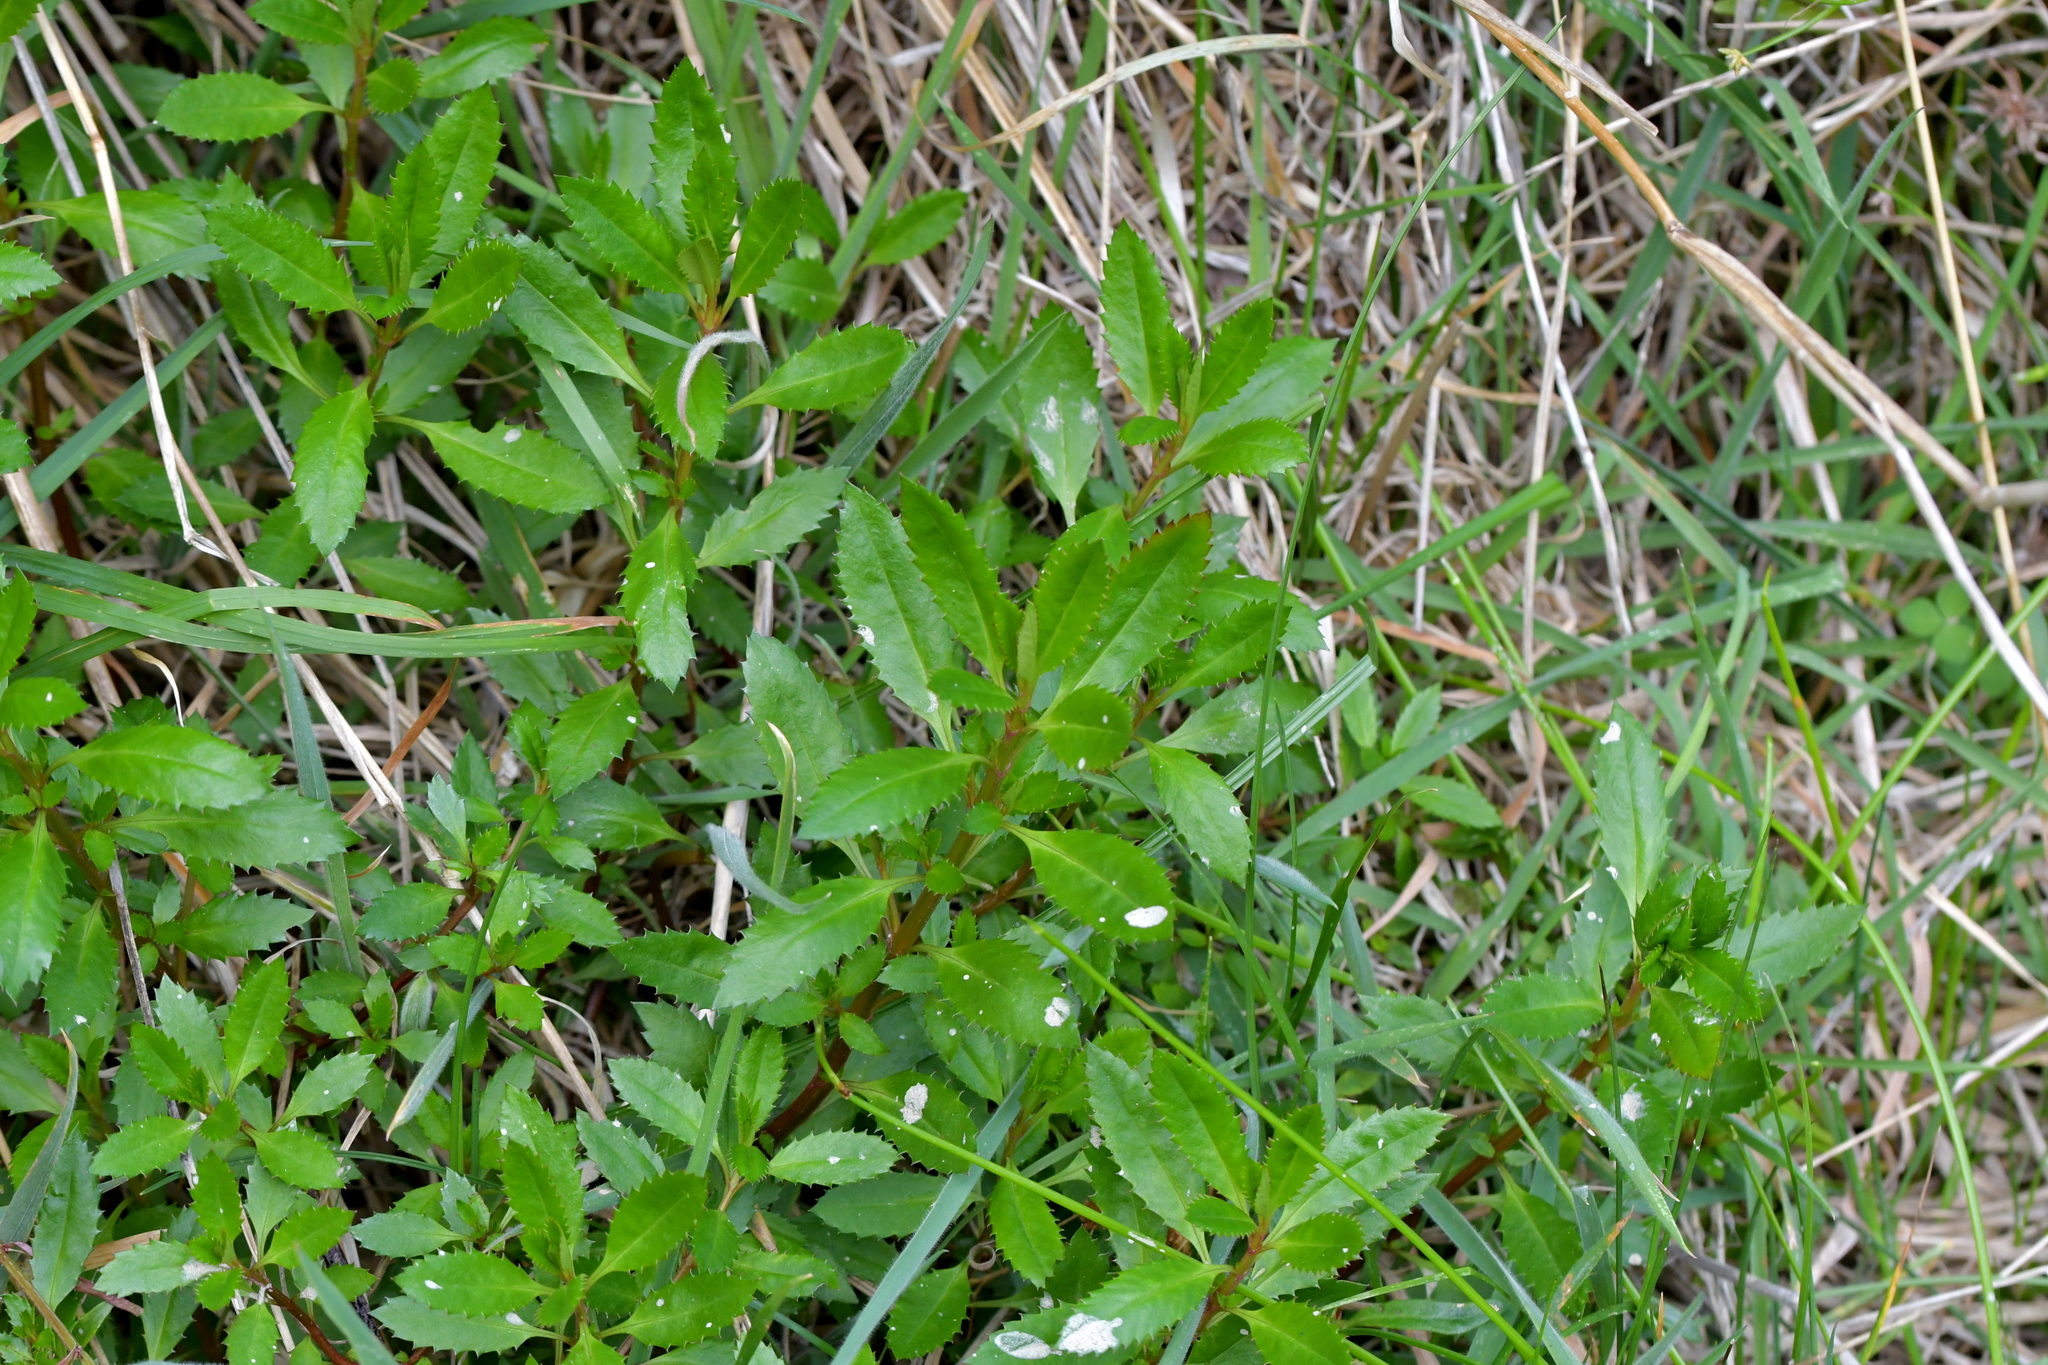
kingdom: Plantae
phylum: Tracheophyta
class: Magnoliopsida
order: Saxifragales
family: Haloragaceae
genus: Haloragis
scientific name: Haloragis erecta
